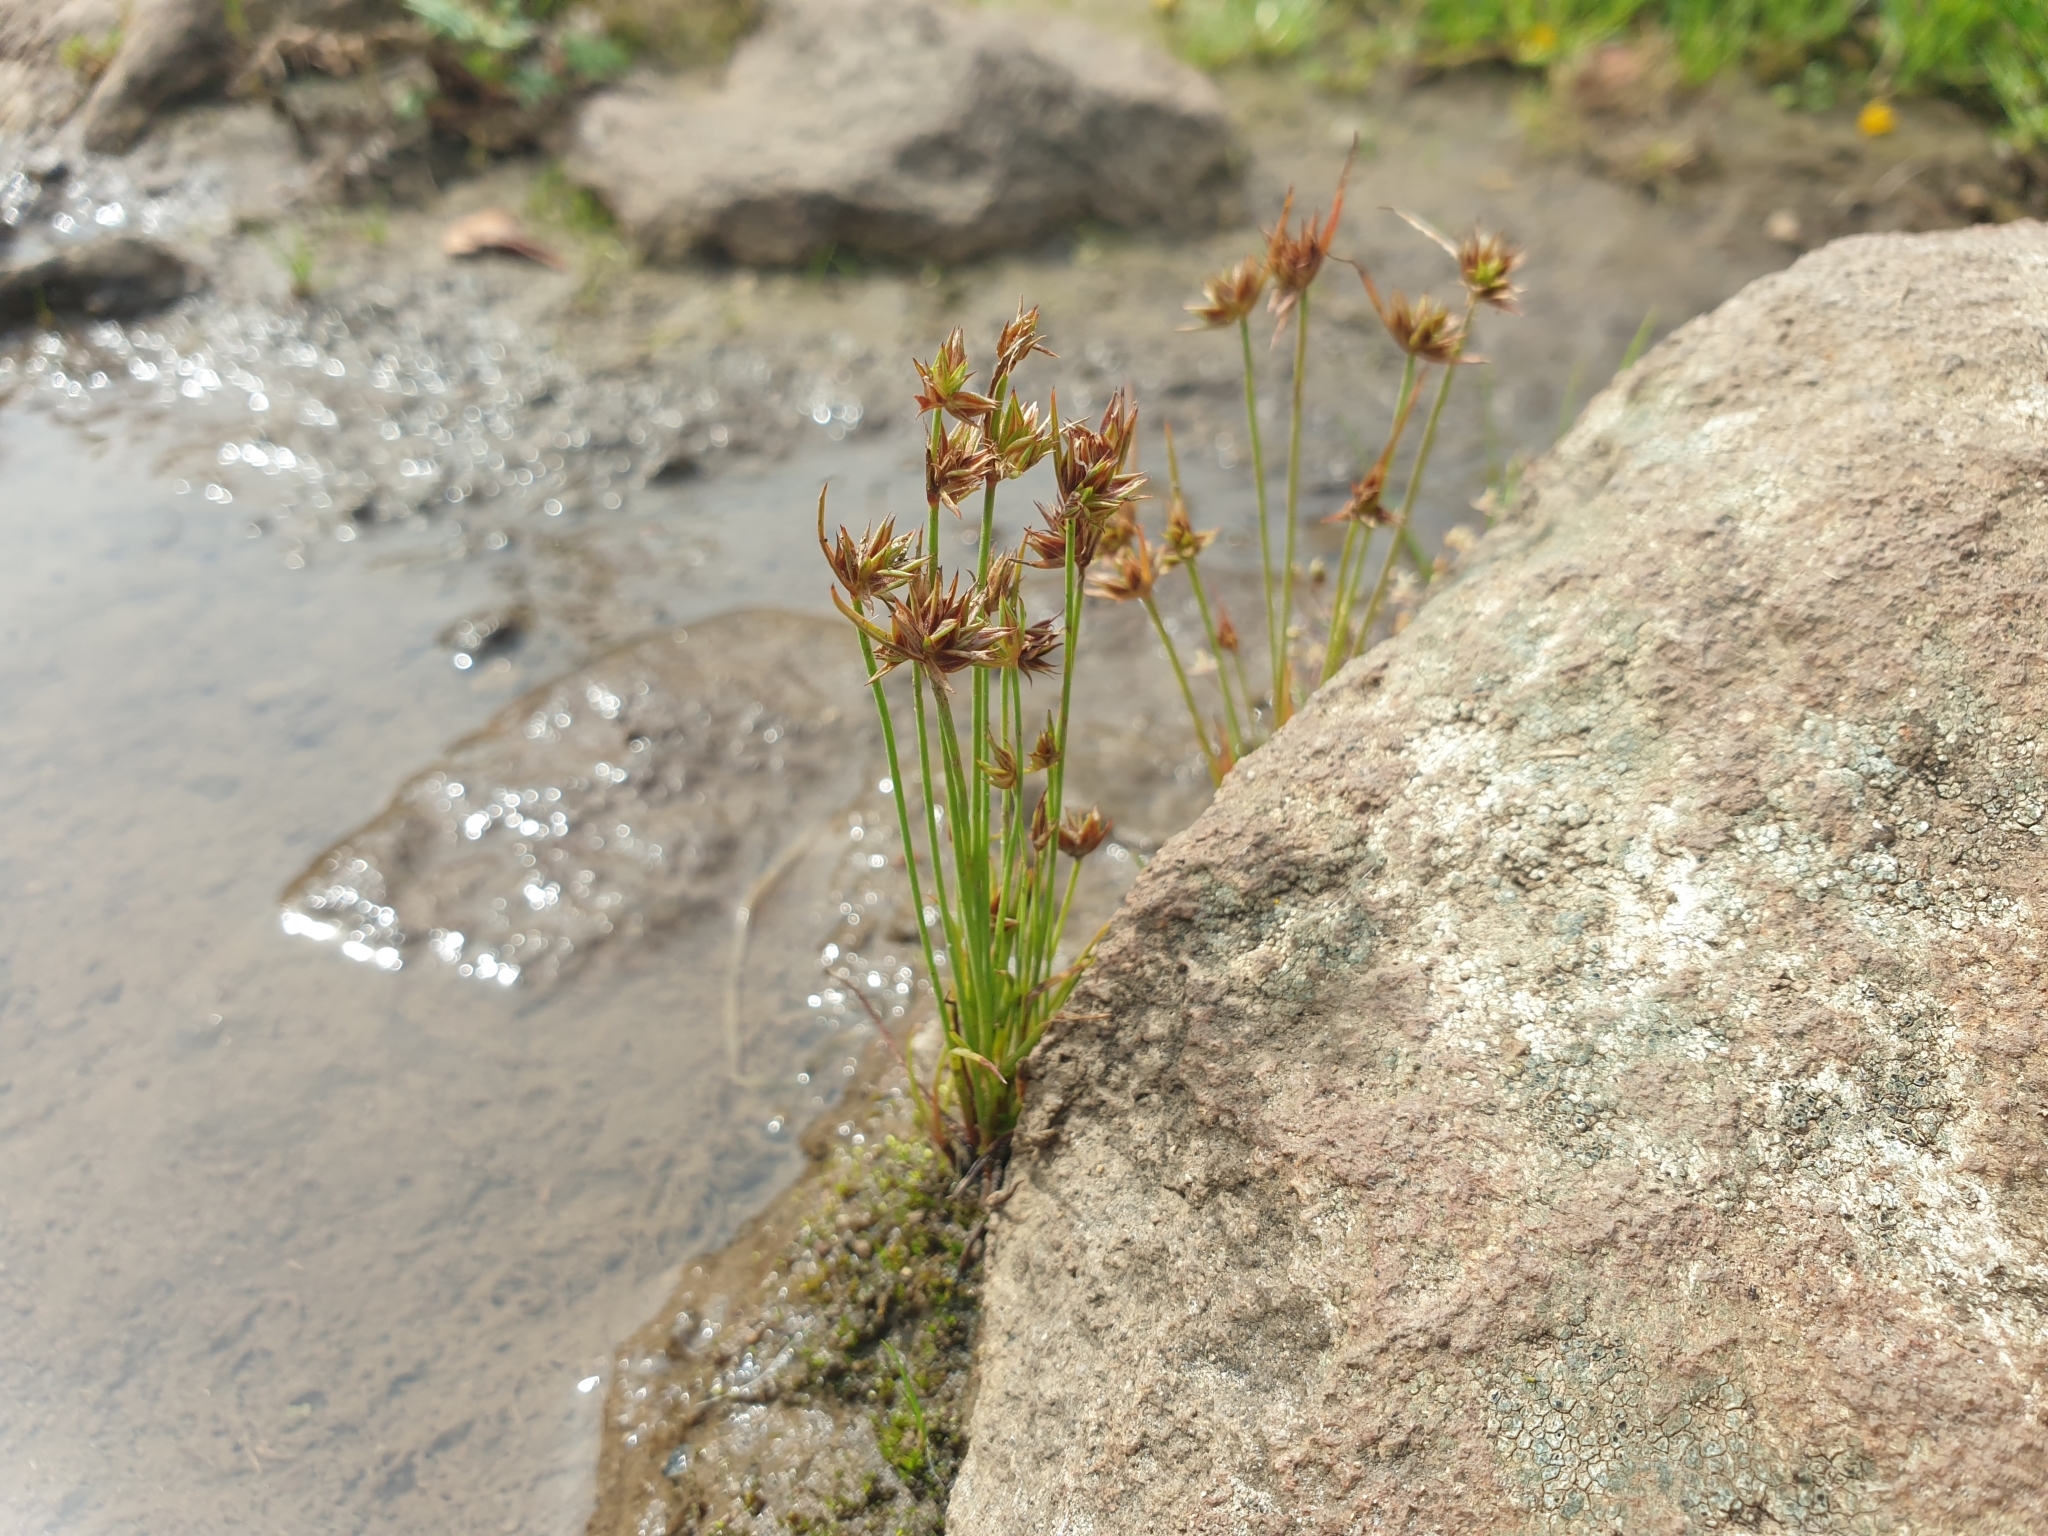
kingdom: Plantae
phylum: Tracheophyta
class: Liliopsida
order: Poales
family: Juncaceae
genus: Juncus
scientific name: Juncus capitatus
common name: Dwarf rush
